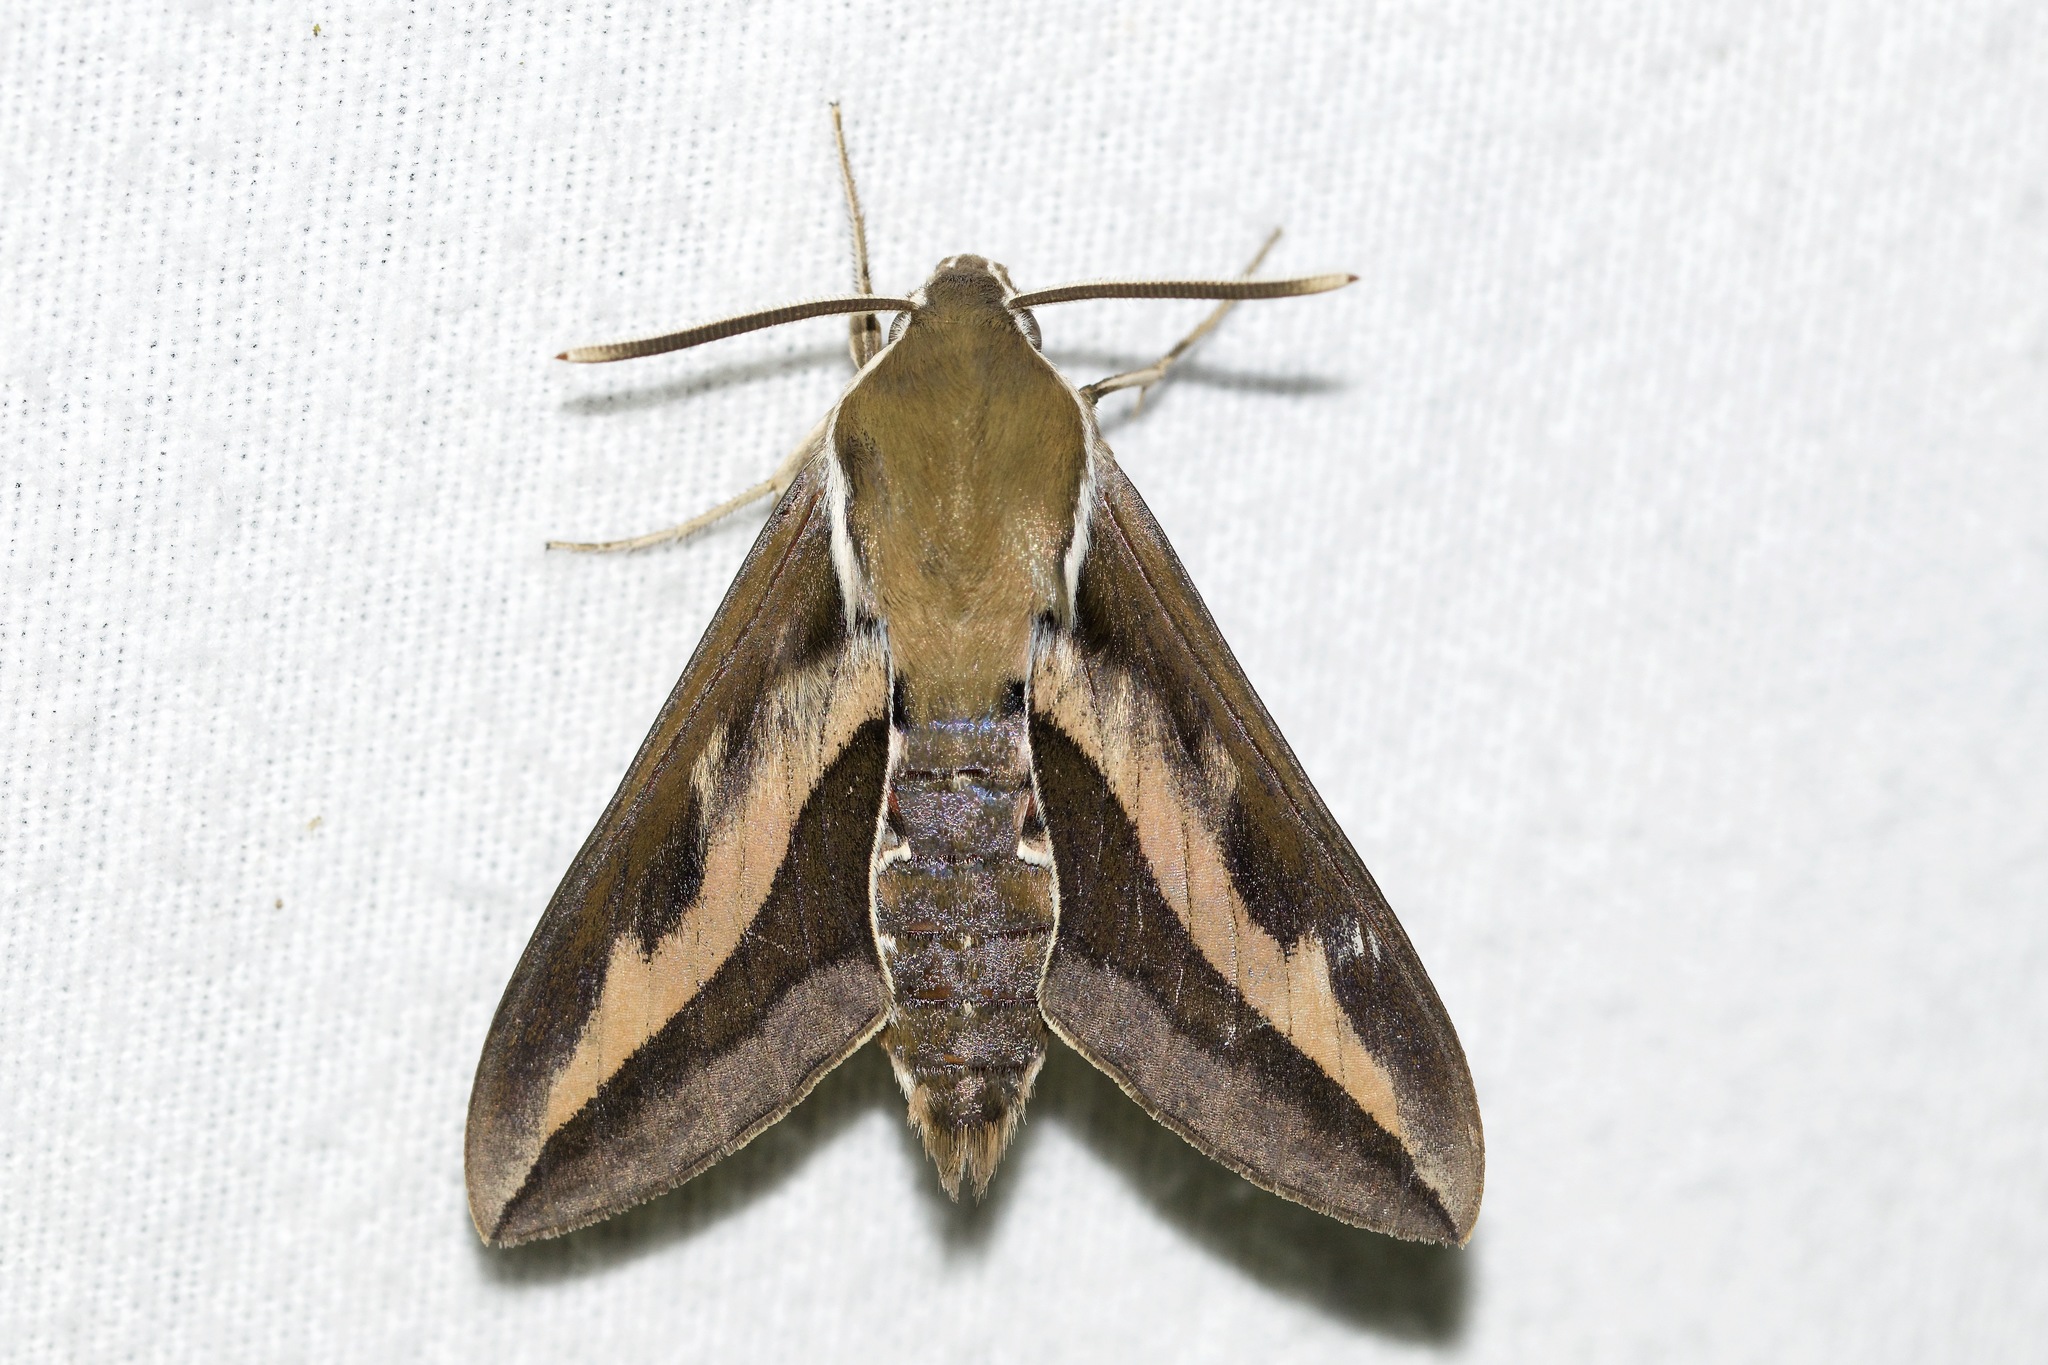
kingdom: Animalia
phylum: Arthropoda
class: Insecta
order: Lepidoptera
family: Sphingidae
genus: Hyles
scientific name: Hyles gallii
